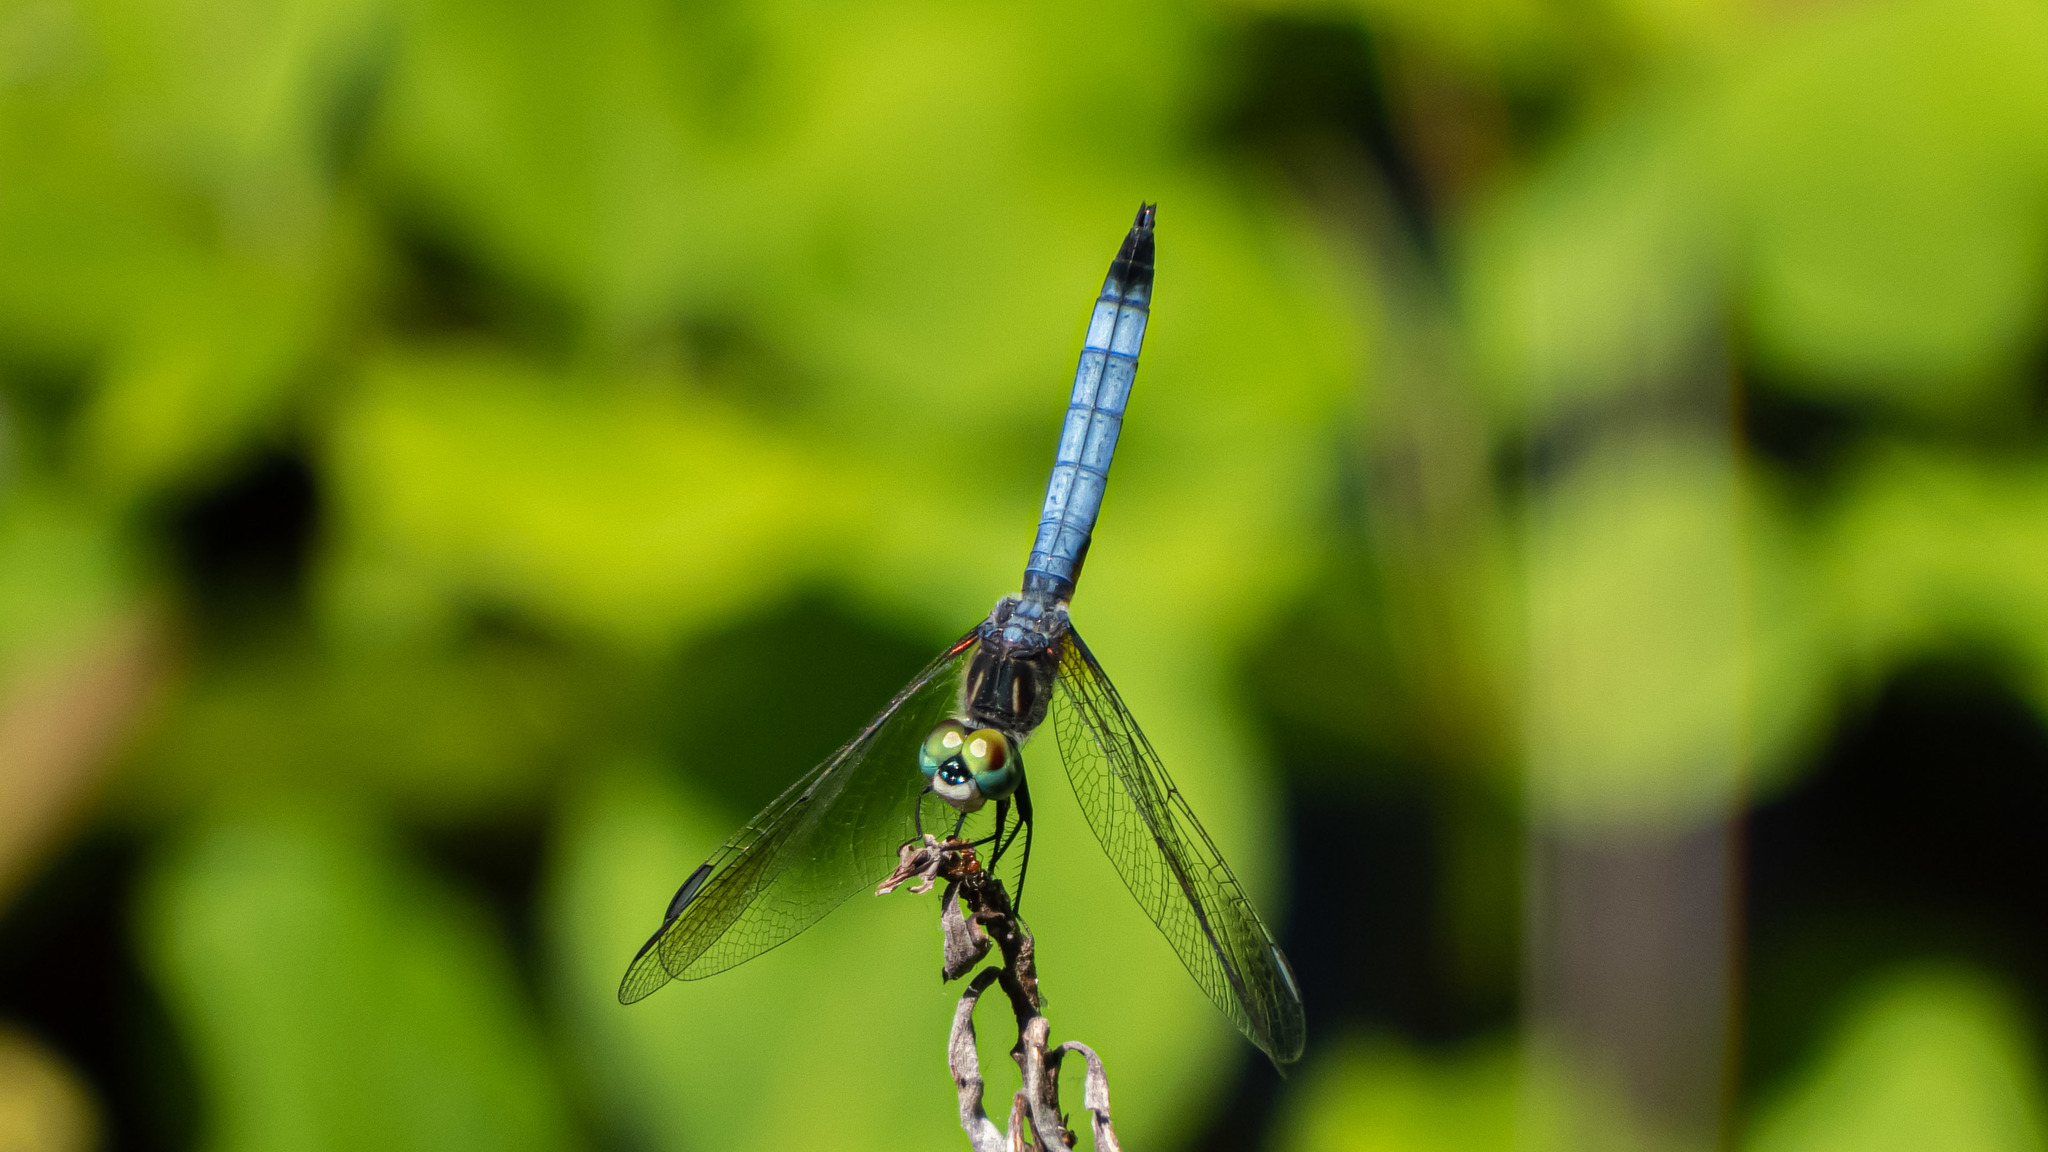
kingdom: Animalia
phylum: Arthropoda
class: Insecta
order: Odonata
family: Libellulidae
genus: Pachydiplax
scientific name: Pachydiplax longipennis
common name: Blue dasher
